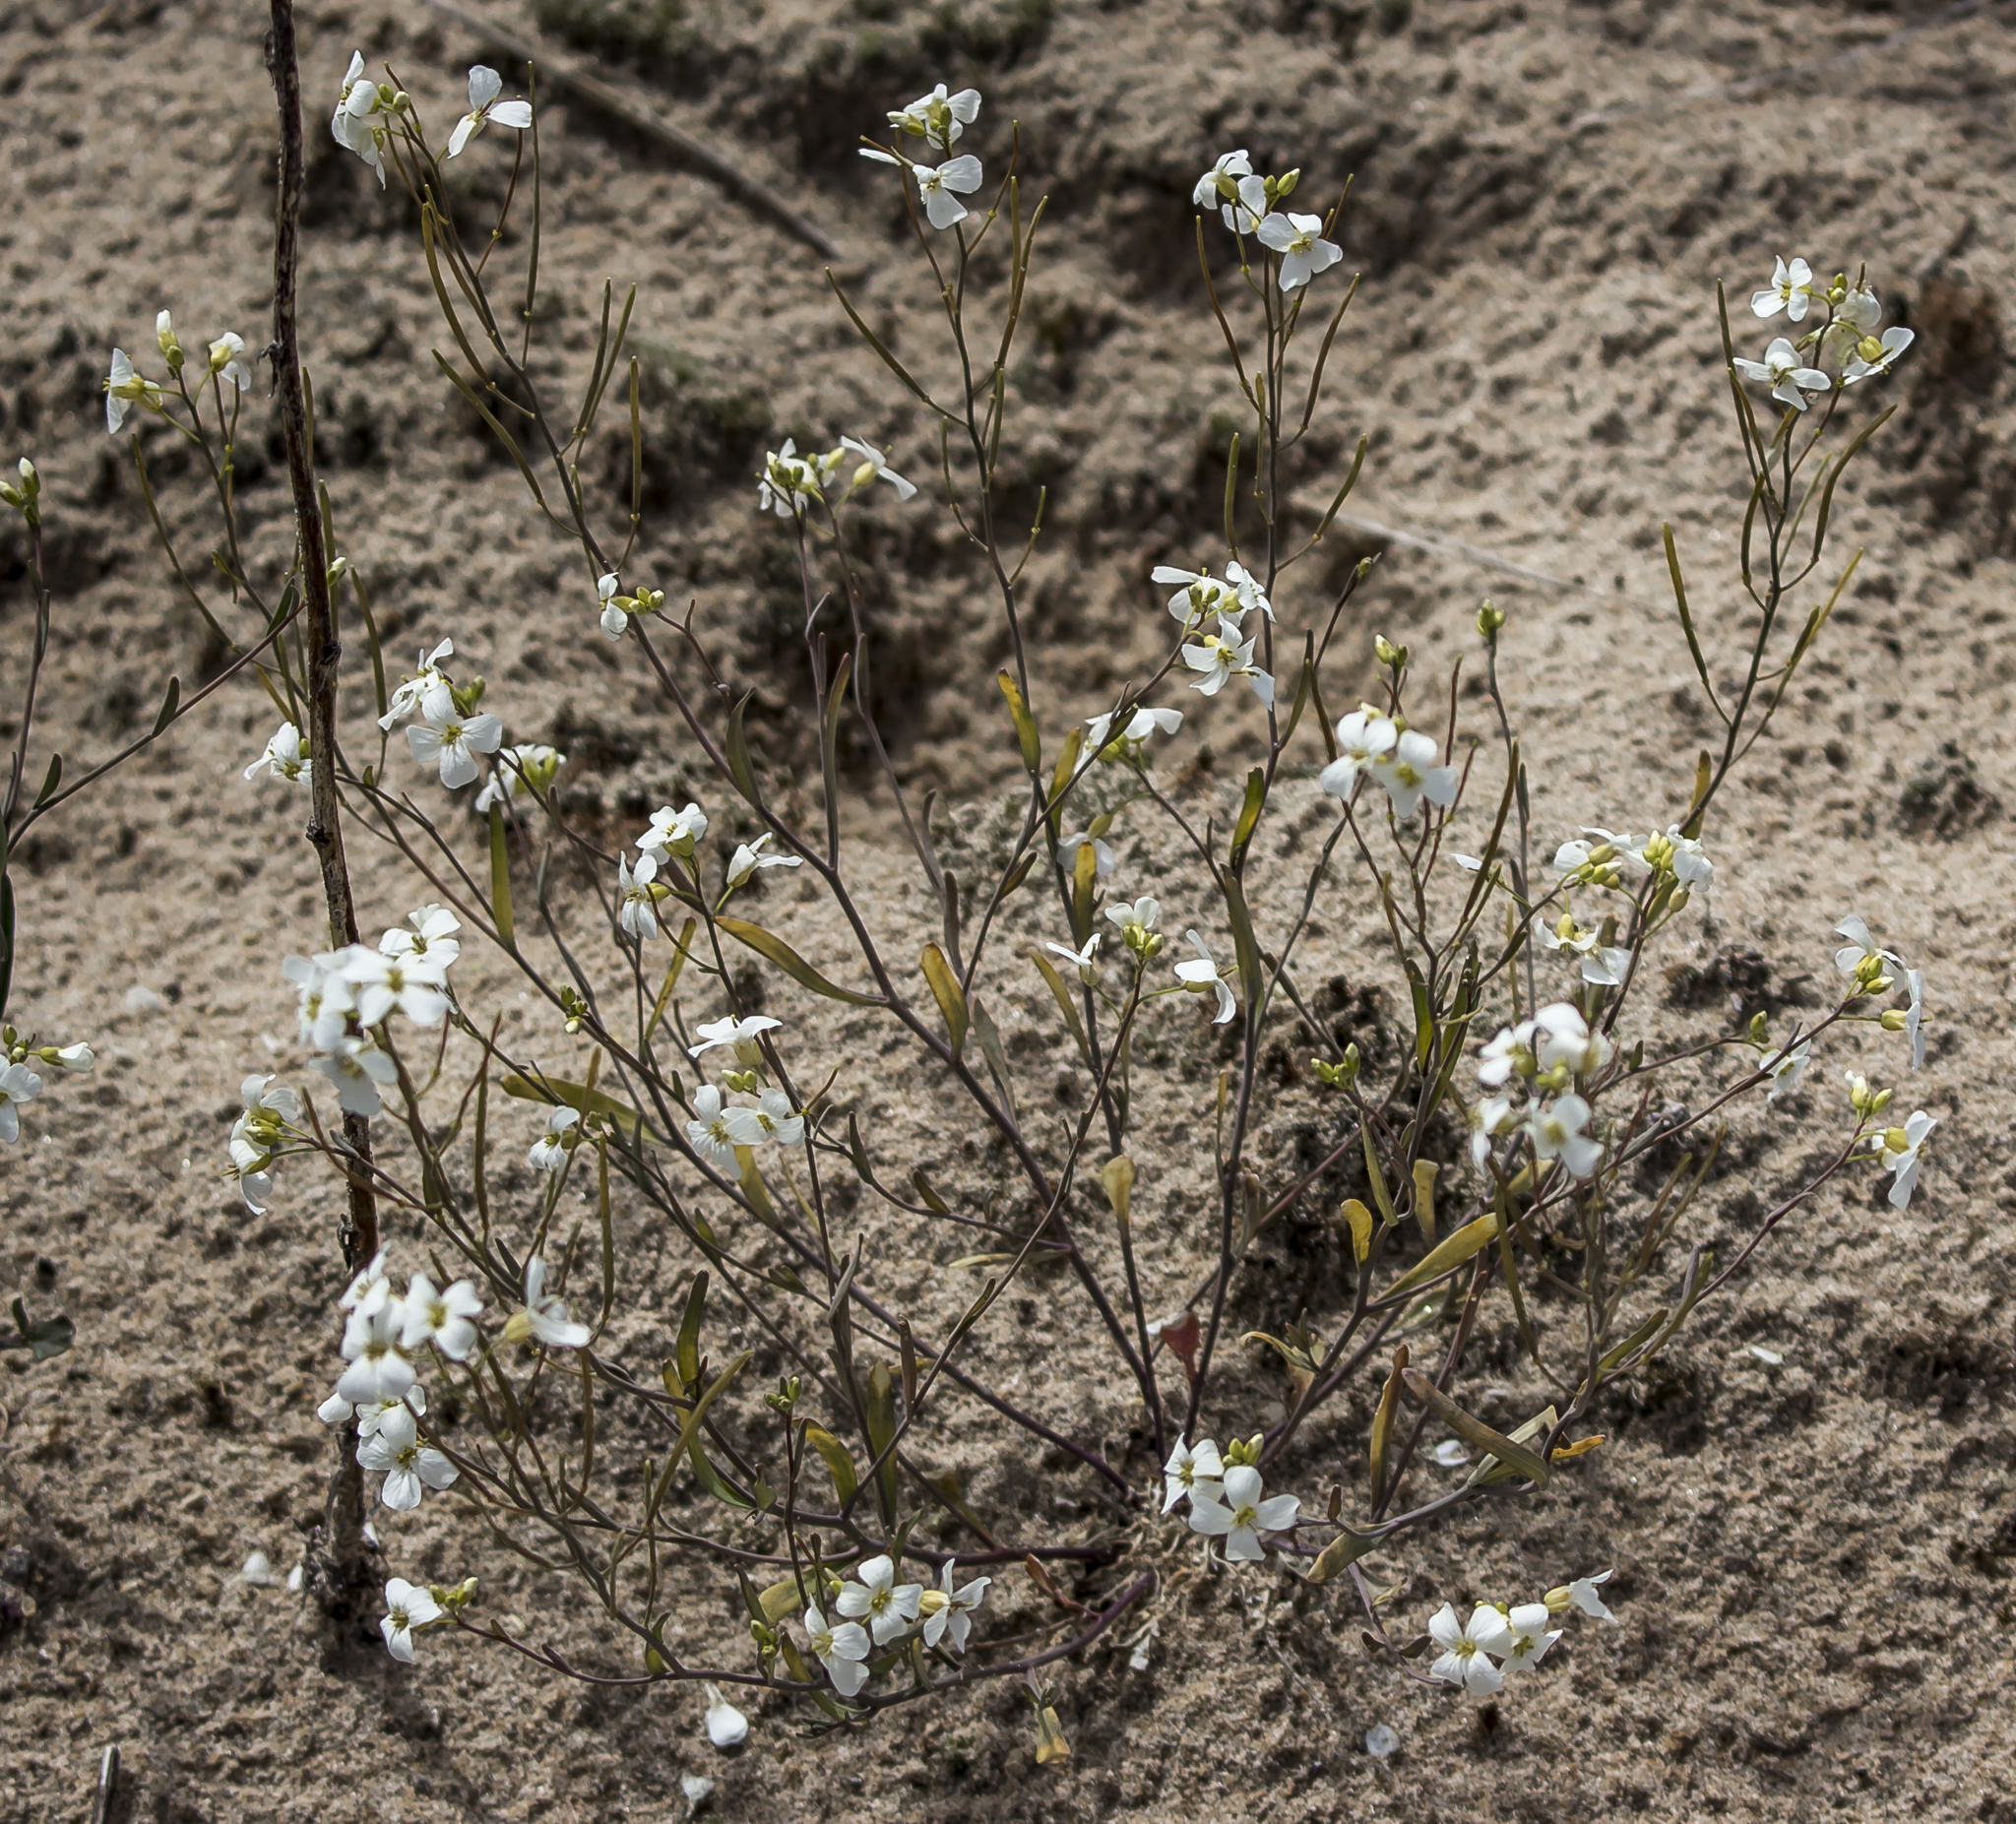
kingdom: Plantae
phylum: Tracheophyta
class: Magnoliopsida
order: Brassicales
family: Brassicaceae
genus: Arabidopsis
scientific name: Arabidopsis lyrata
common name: Lyrate rockcress
